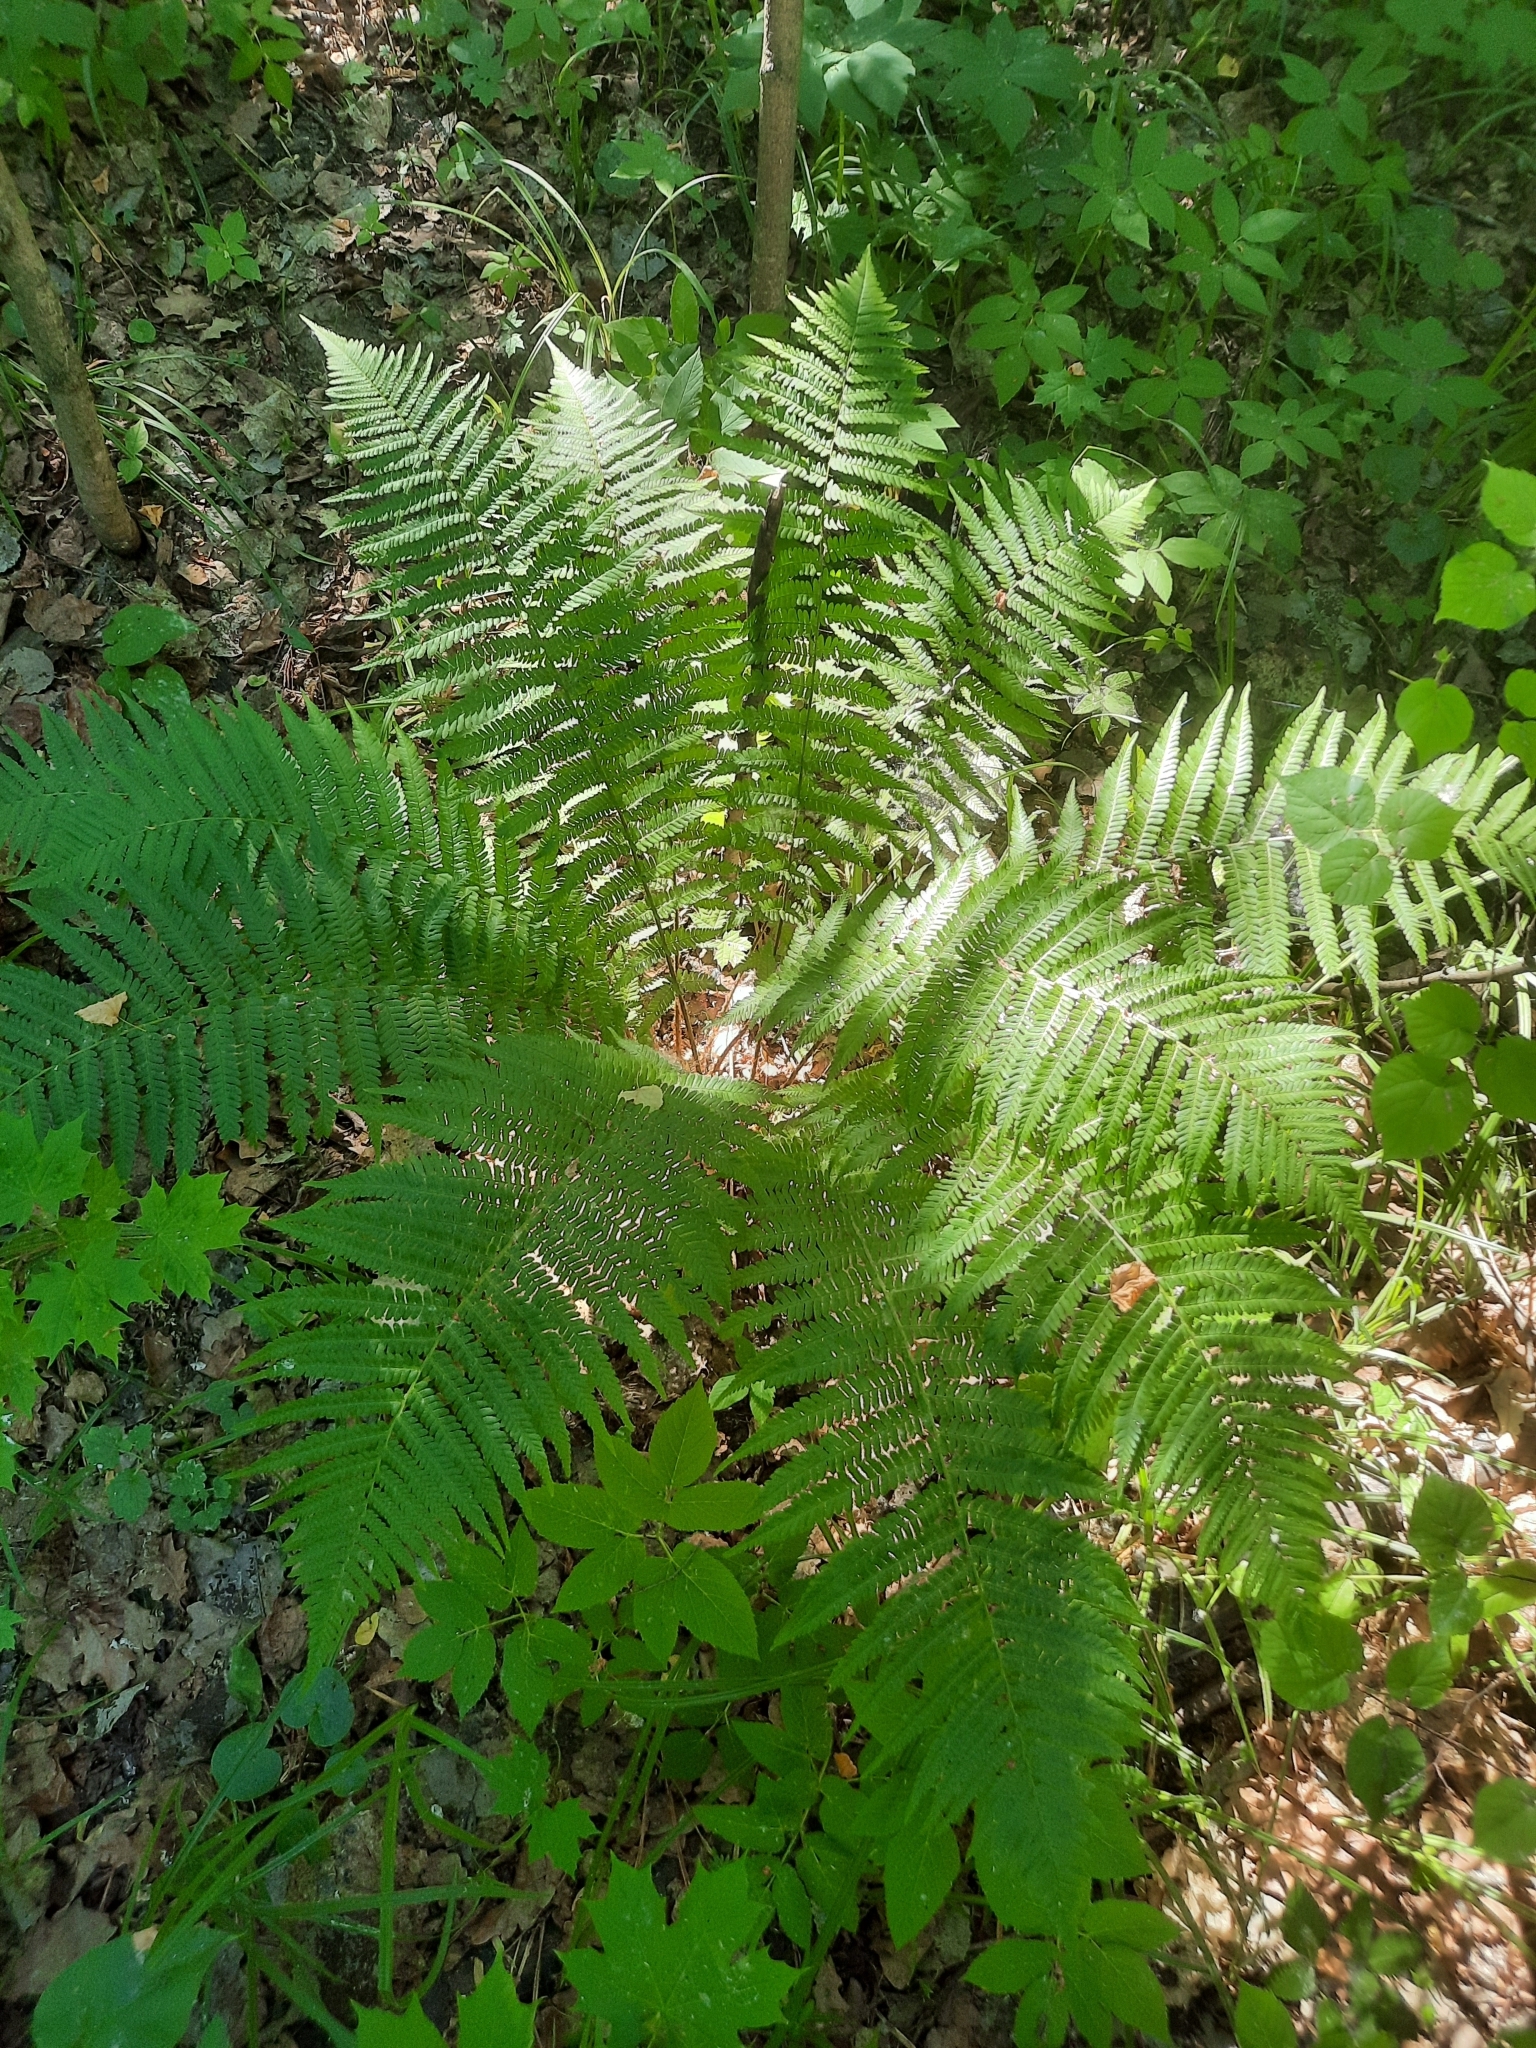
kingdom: Plantae
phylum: Tracheophyta
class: Polypodiopsida
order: Polypodiales
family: Dryopteridaceae
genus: Dryopteris
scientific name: Dryopteris filix-mas
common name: Male fern
